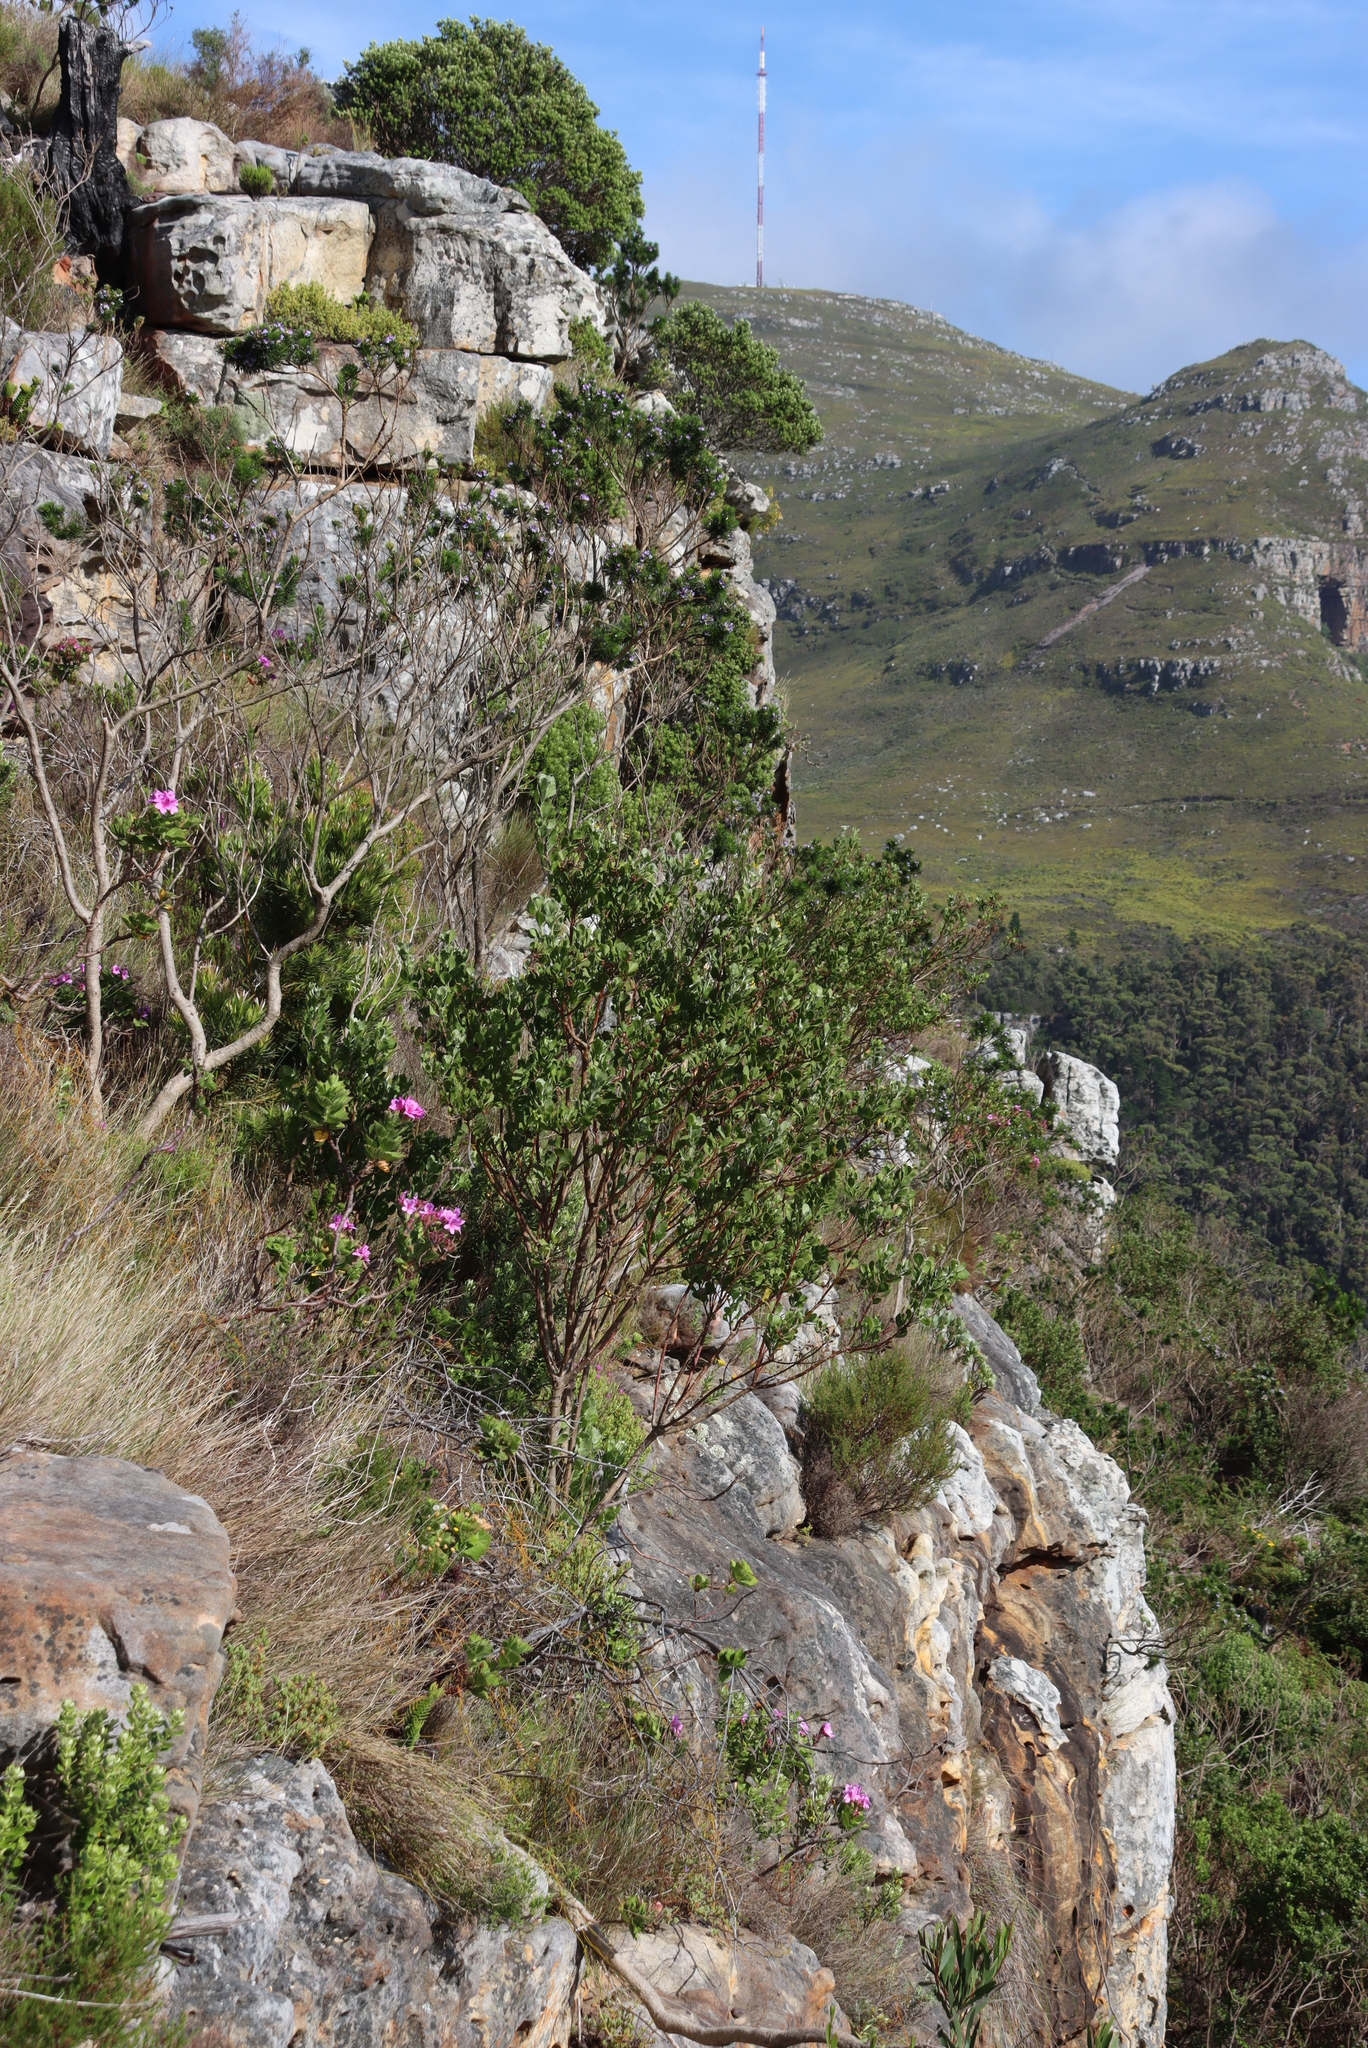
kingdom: Plantae
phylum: Tracheophyta
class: Magnoliopsida
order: Asterales
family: Asteraceae
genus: Osteospermum
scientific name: Osteospermum moniliferum
